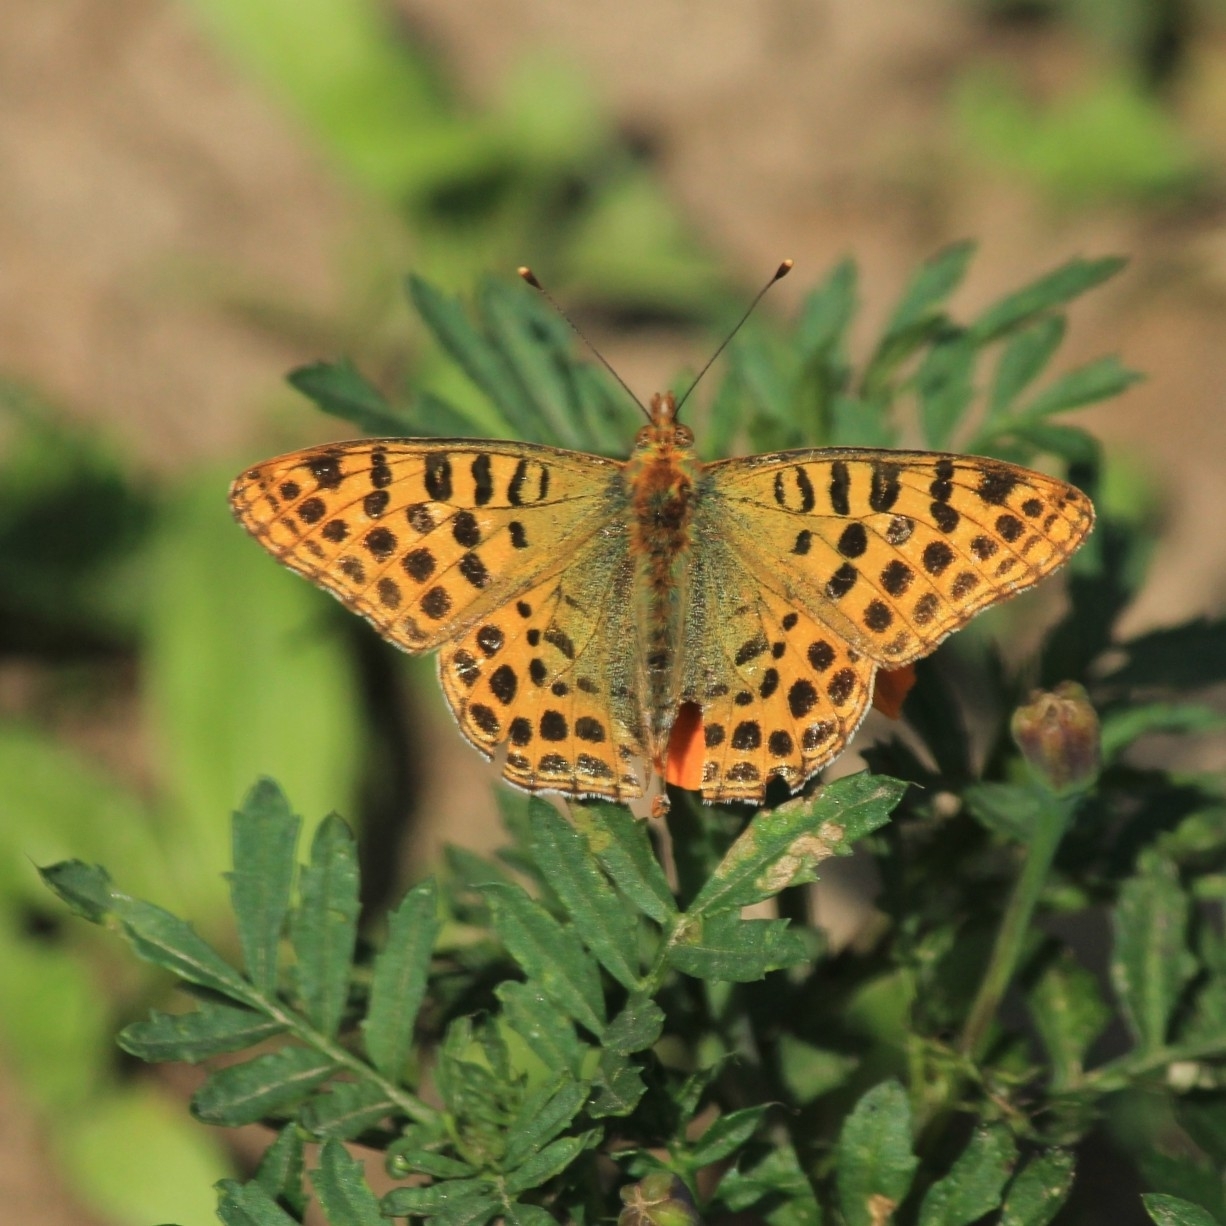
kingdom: Animalia
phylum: Arthropoda
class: Insecta
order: Lepidoptera
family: Nymphalidae
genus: Issoria
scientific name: Issoria
